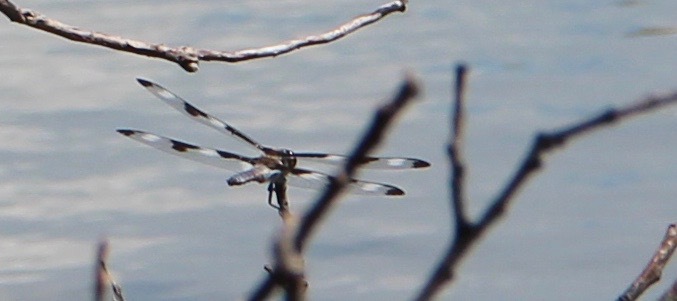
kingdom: Animalia
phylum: Arthropoda
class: Insecta
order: Odonata
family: Libellulidae
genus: Libellula
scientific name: Libellula pulchella
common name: Twelve-spotted skimmer
